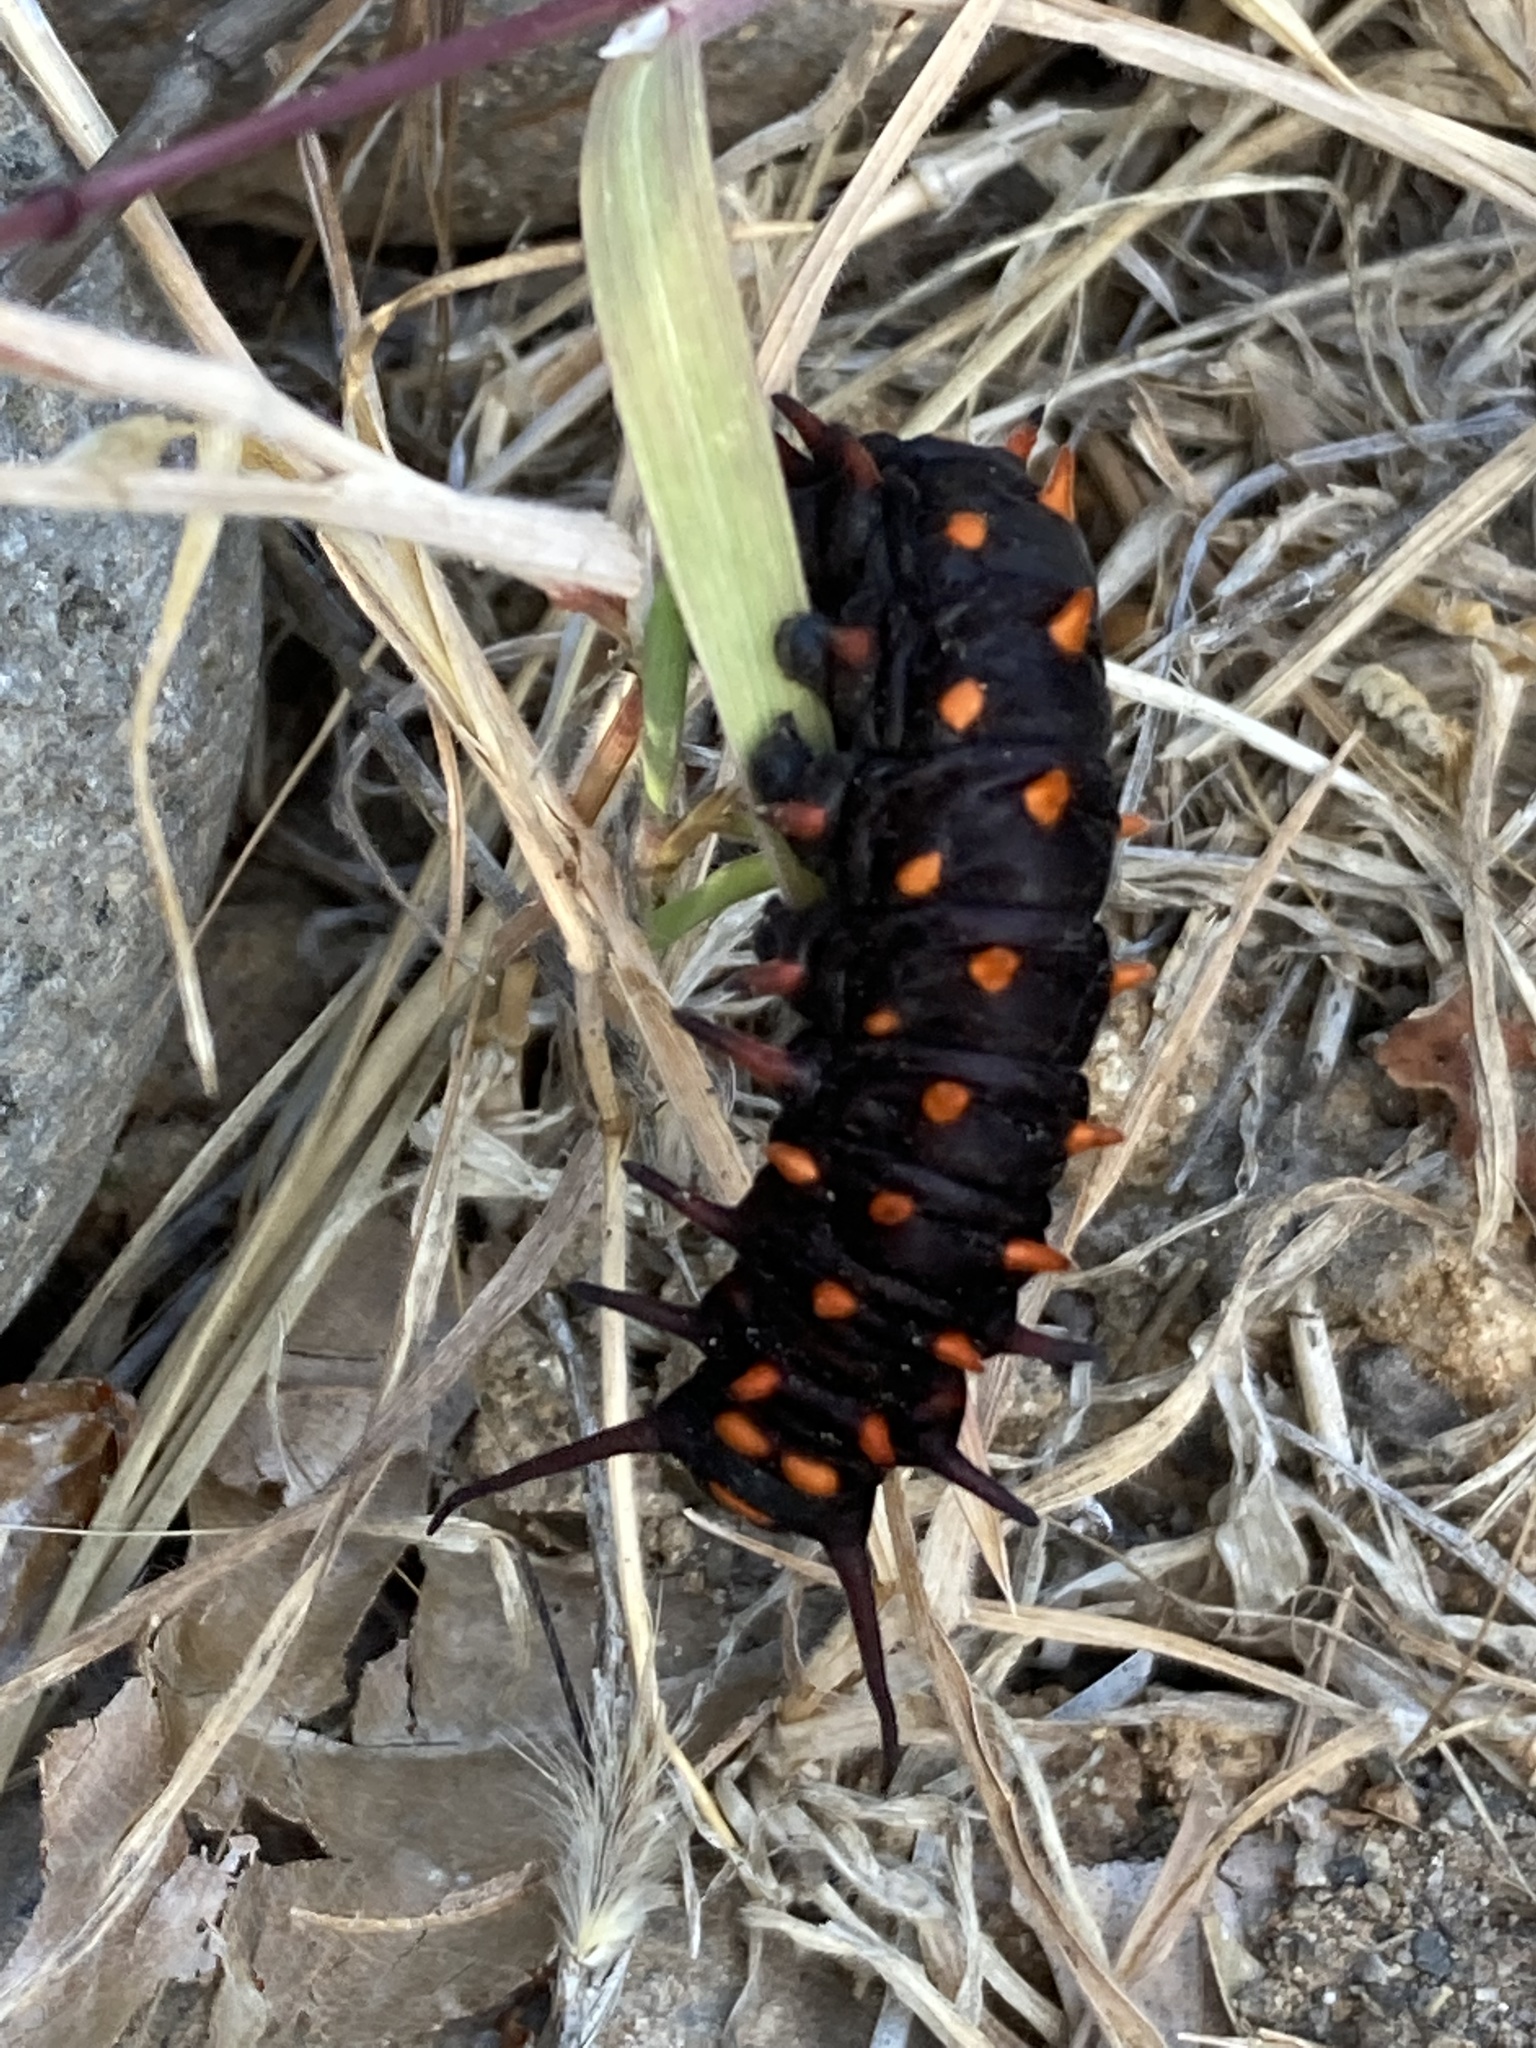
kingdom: Animalia
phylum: Arthropoda
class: Insecta
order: Lepidoptera
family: Papilionidae
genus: Battus
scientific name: Battus philenor
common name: Pipevine swallowtail
